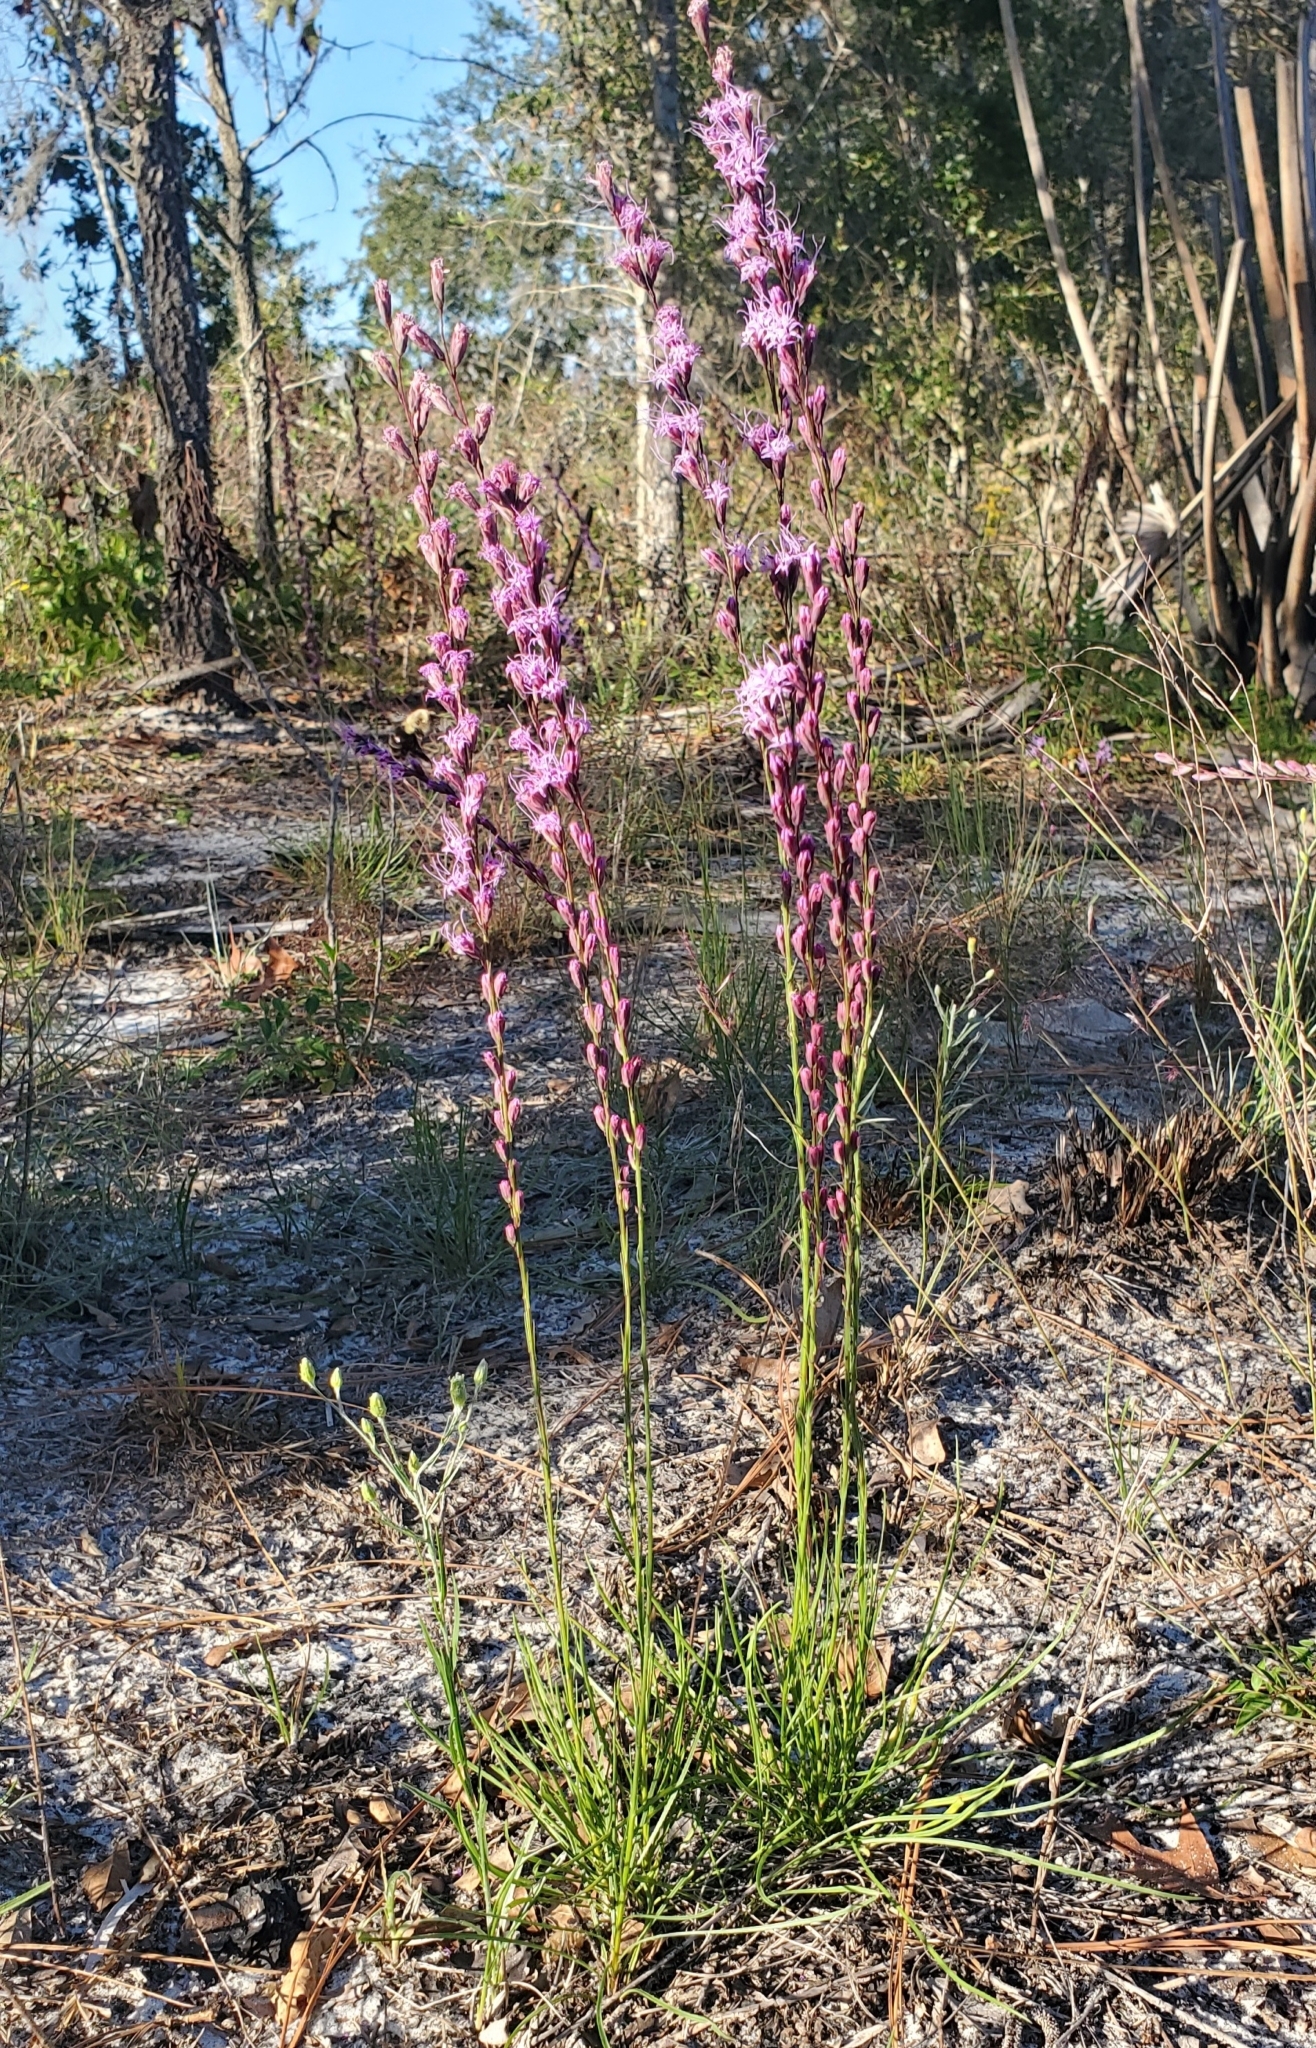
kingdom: Plantae
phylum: Tracheophyta
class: Magnoliopsida
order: Asterales
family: Asteraceae
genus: Liatris
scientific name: Liatris laevigata
